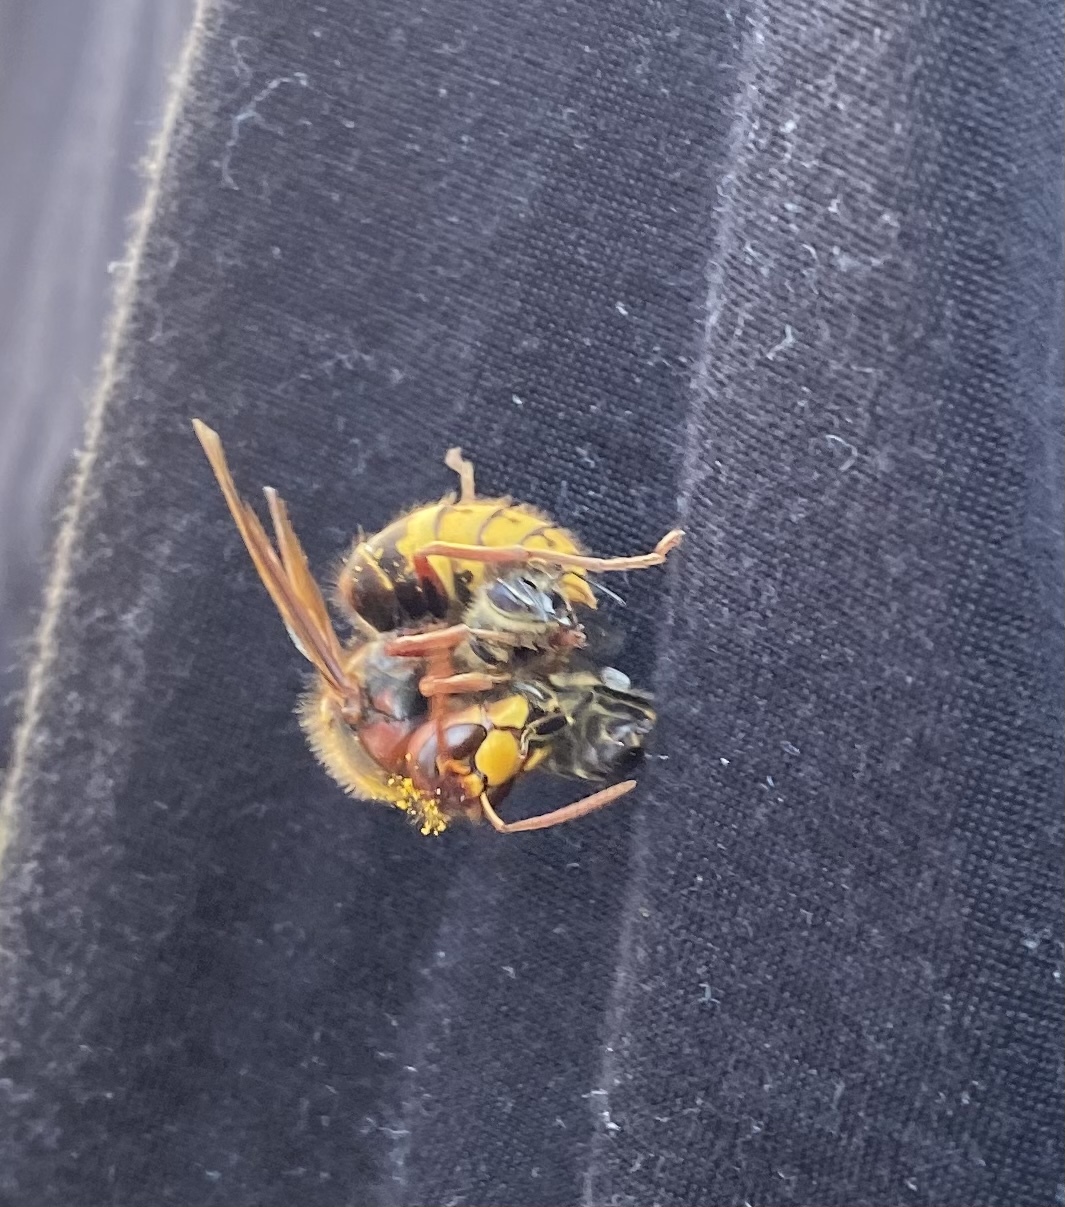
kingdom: Animalia
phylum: Arthropoda
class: Insecta
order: Hymenoptera
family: Vespidae
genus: Vespa
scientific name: Vespa crabro
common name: Hornet
